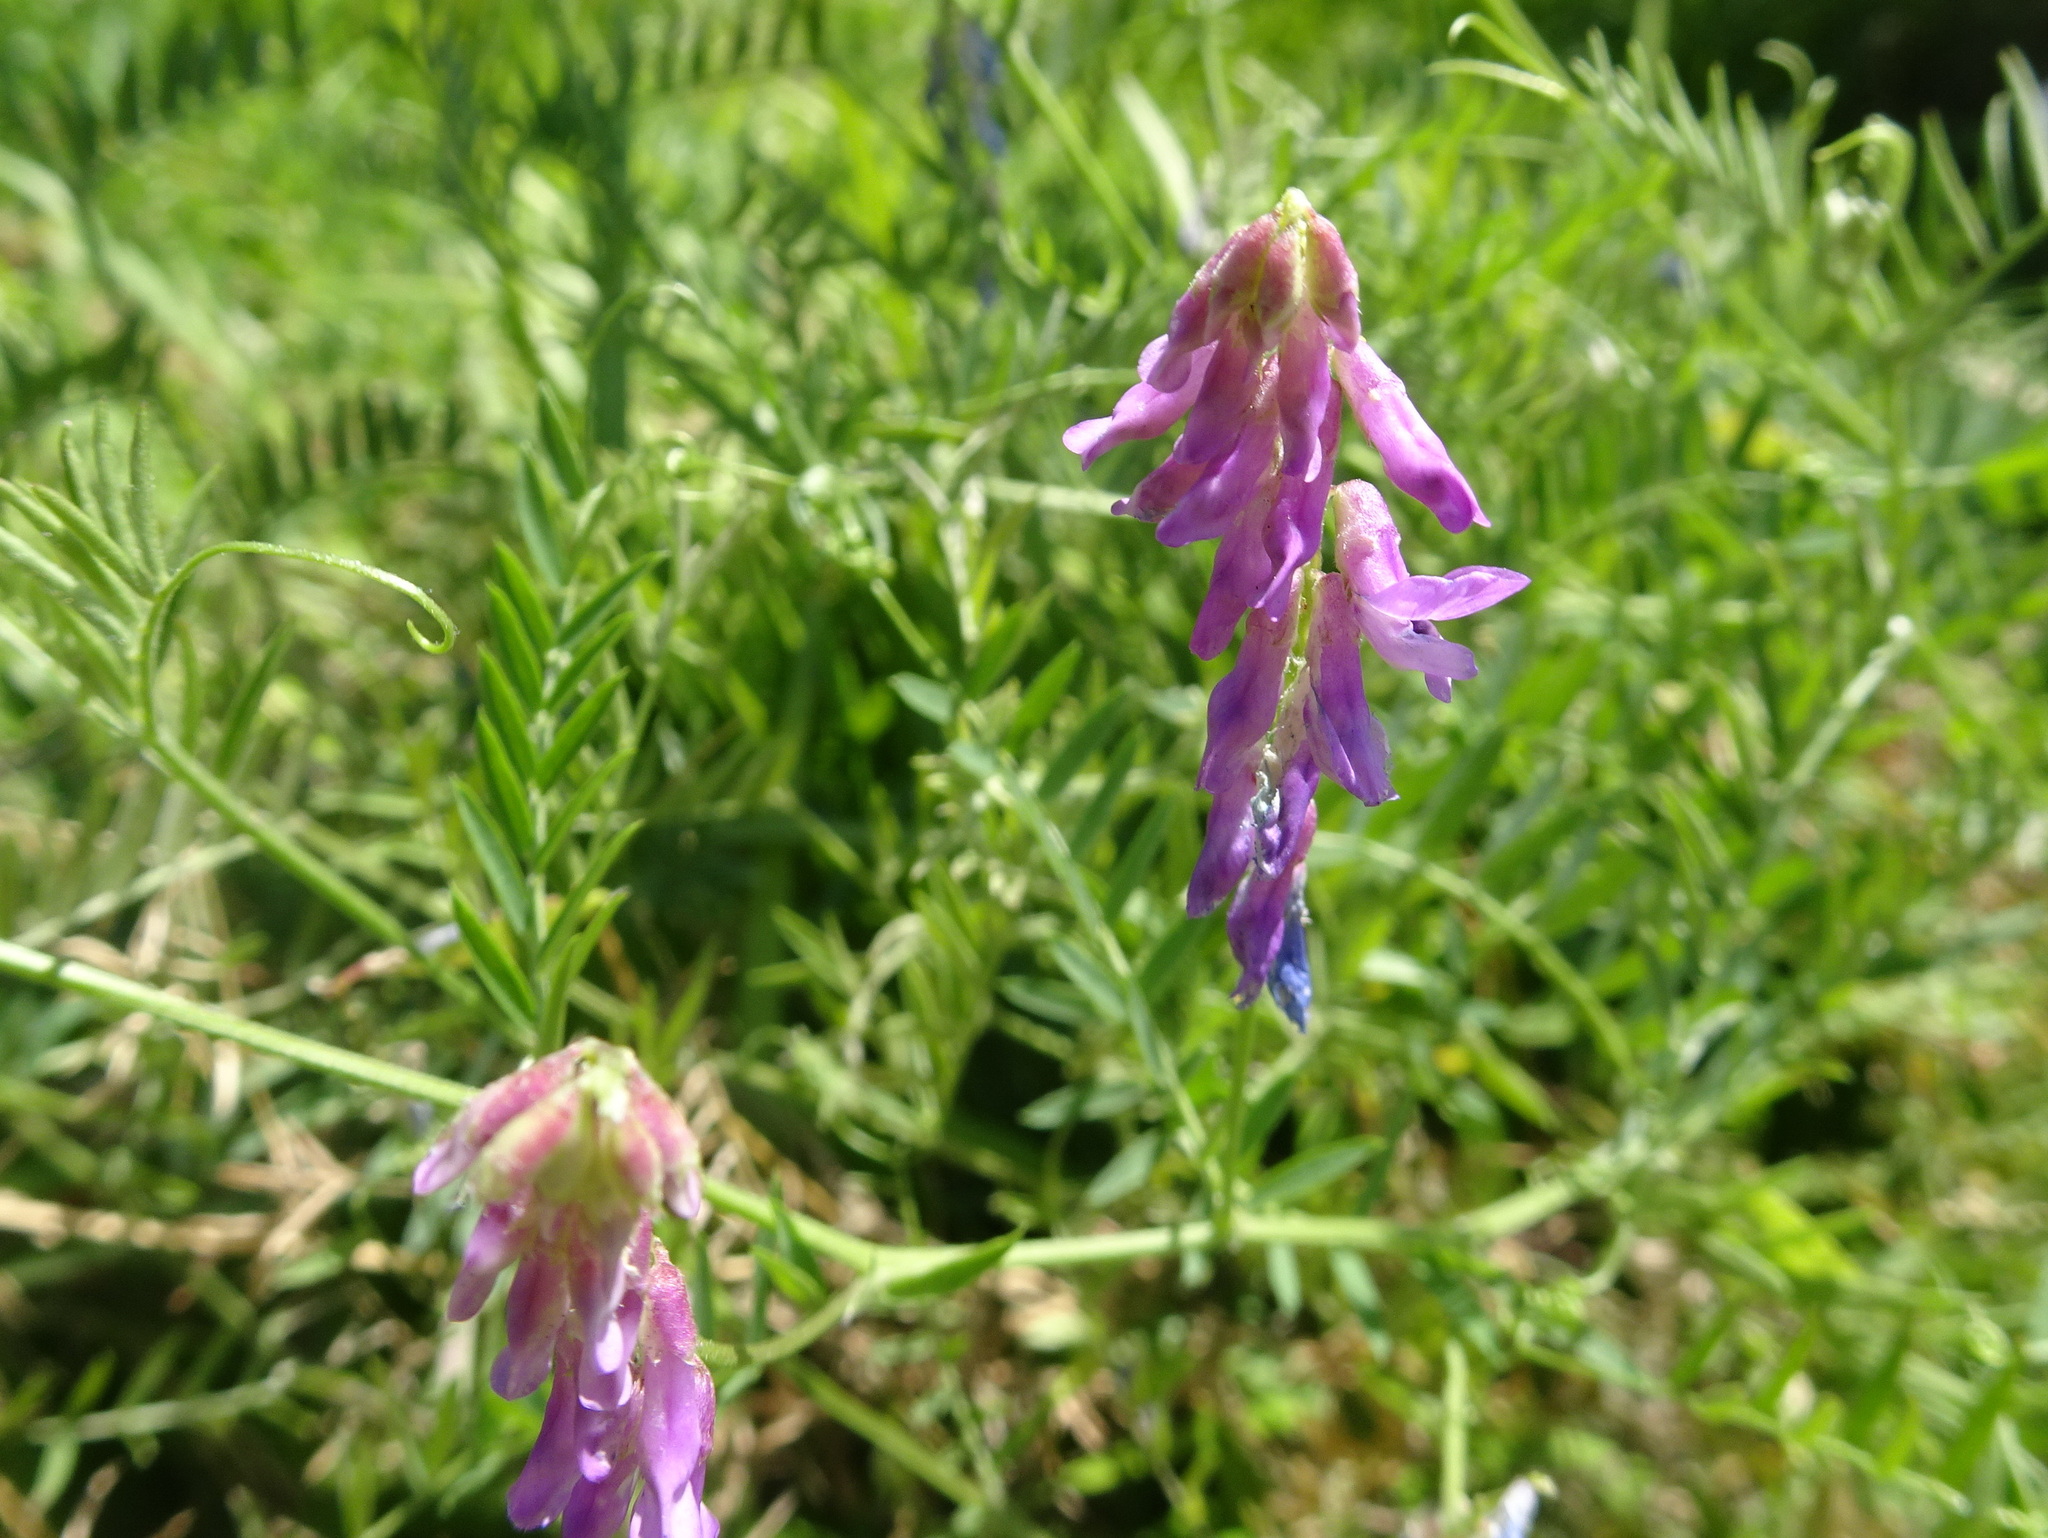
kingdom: Plantae
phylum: Tracheophyta
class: Magnoliopsida
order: Fabales
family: Fabaceae
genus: Vicia
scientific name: Vicia cracca
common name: Bird vetch
